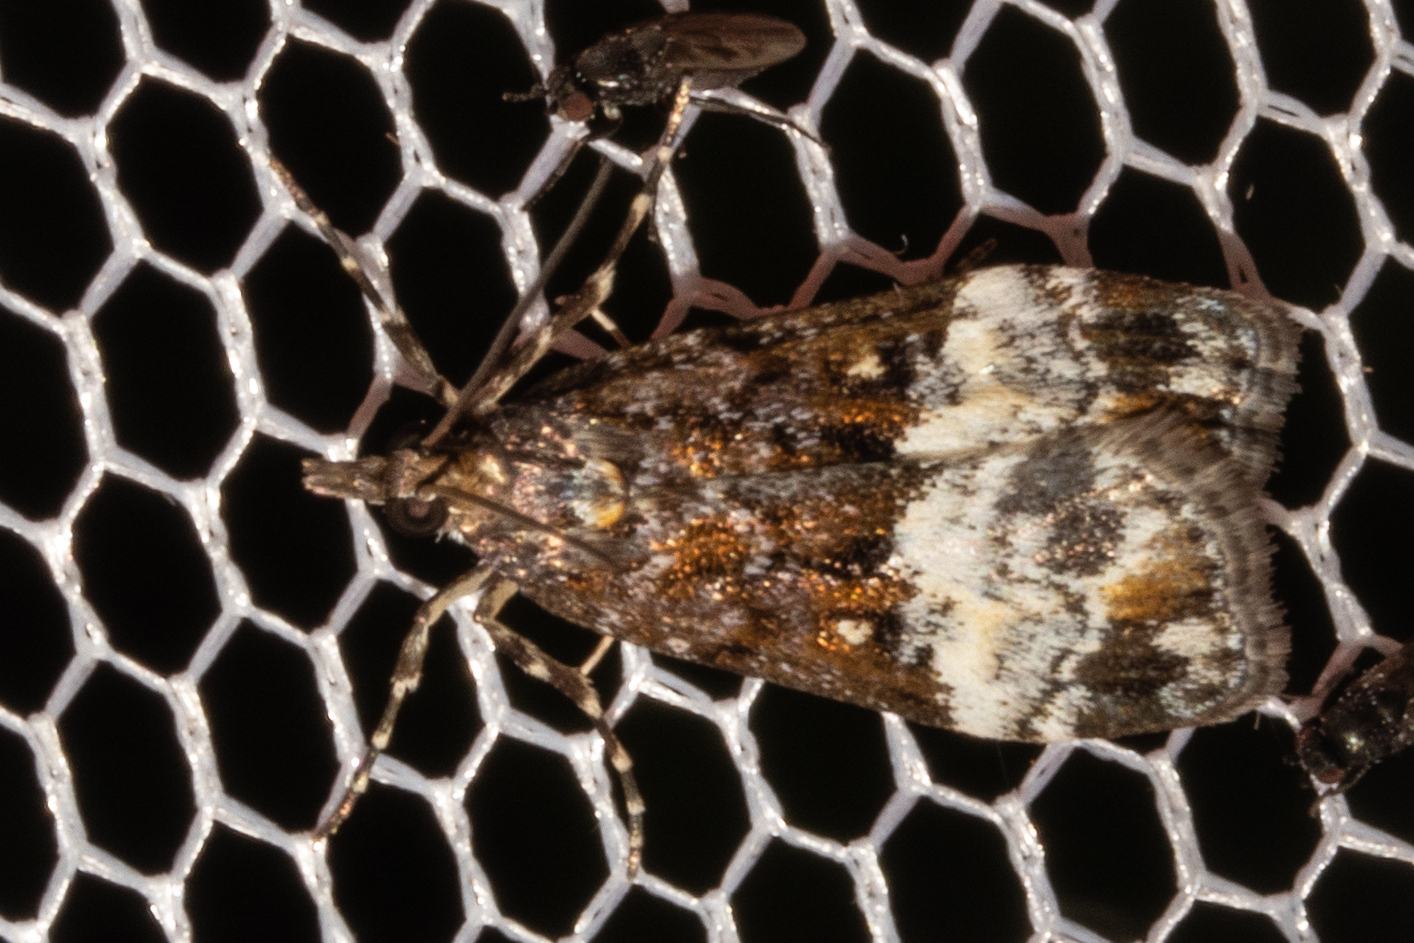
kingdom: Animalia
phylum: Arthropoda
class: Insecta
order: Lepidoptera
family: Crambidae
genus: Scoparia
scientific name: Scoparia minusculalis
